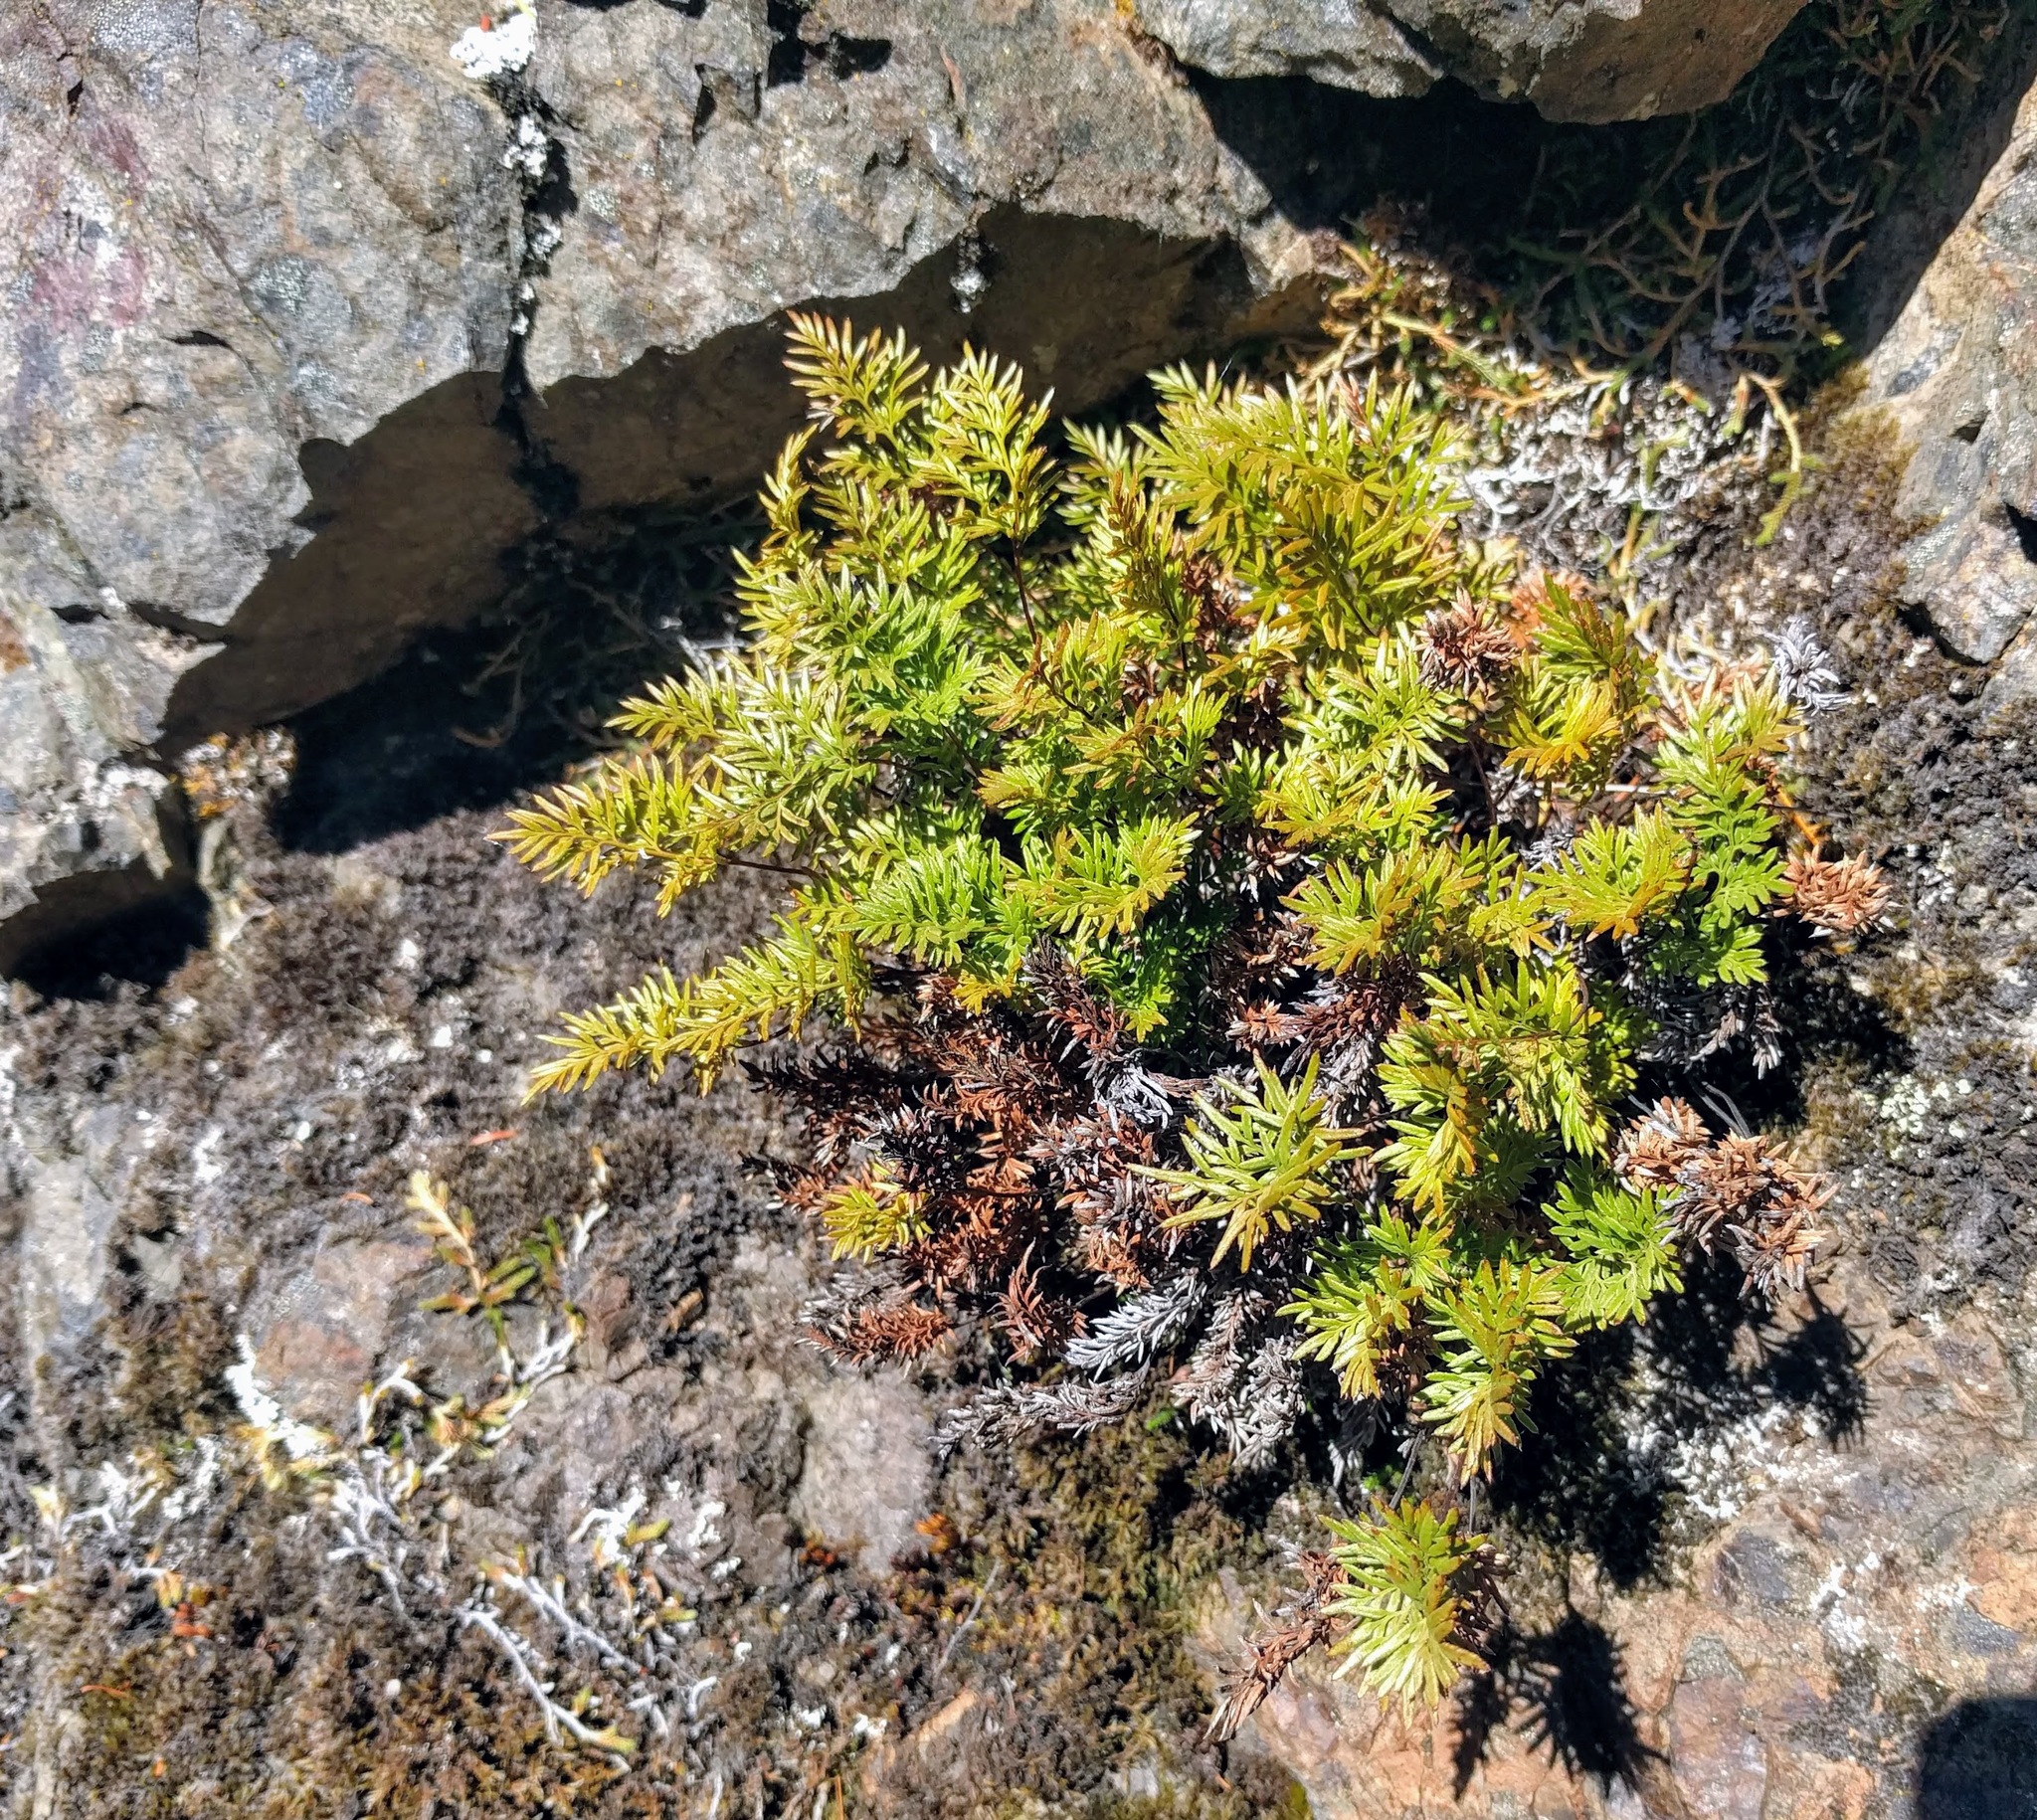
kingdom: Plantae
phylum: Tracheophyta
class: Polypodiopsida
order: Polypodiales
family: Pteridaceae
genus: Aspidotis
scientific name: Aspidotis densa
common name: Indian's dream
